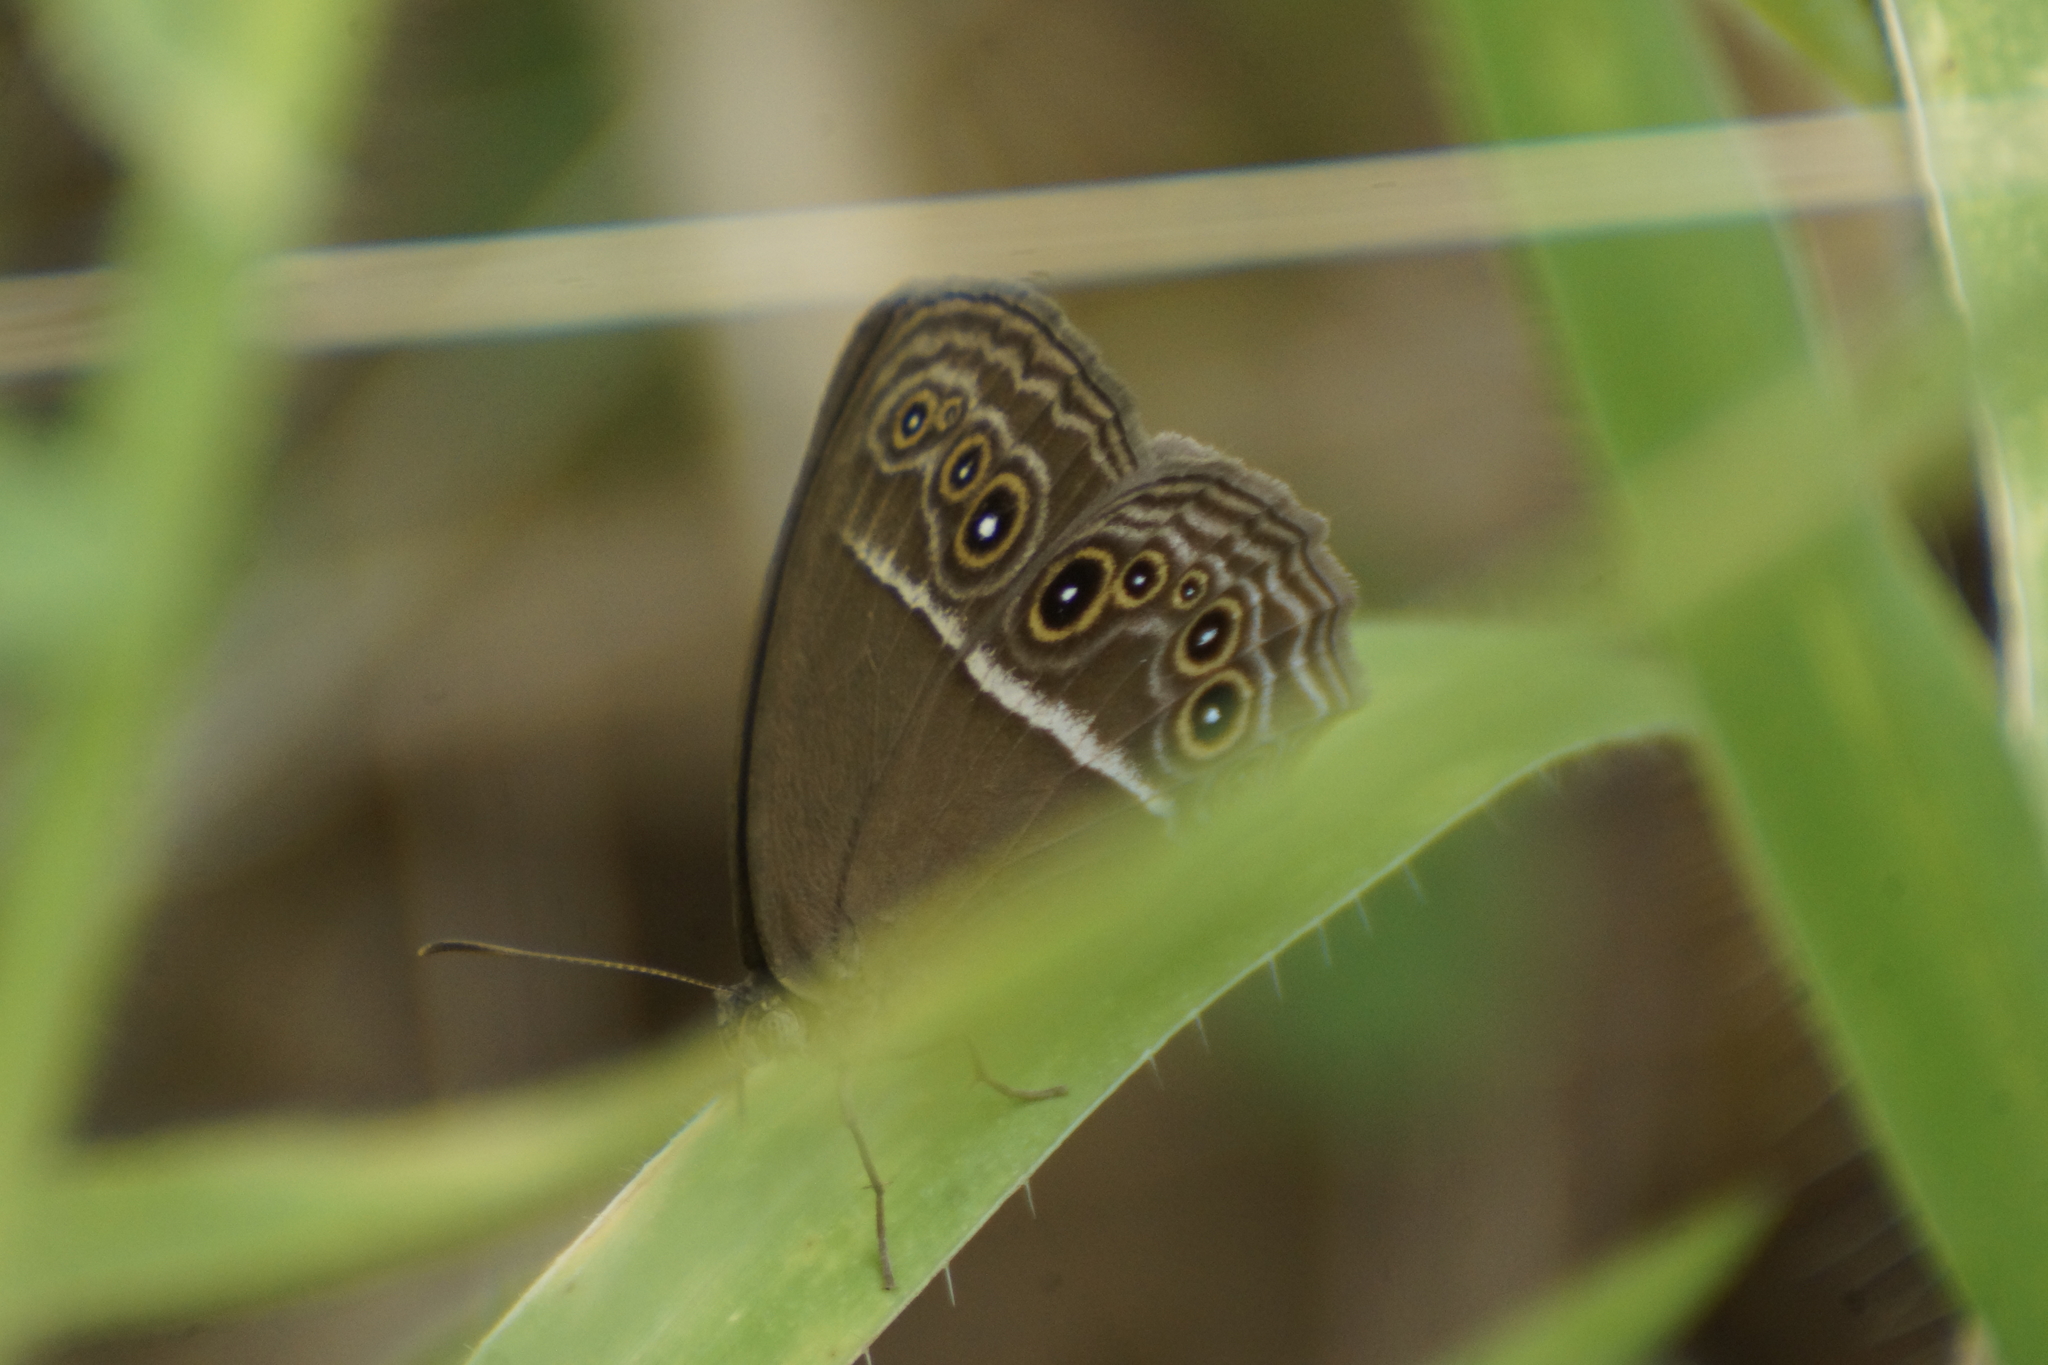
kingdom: Animalia
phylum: Arthropoda
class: Insecta
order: Lepidoptera
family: Nymphalidae
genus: Mycalesis
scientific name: Mycalesis perseus
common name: Dingy bushbrown
